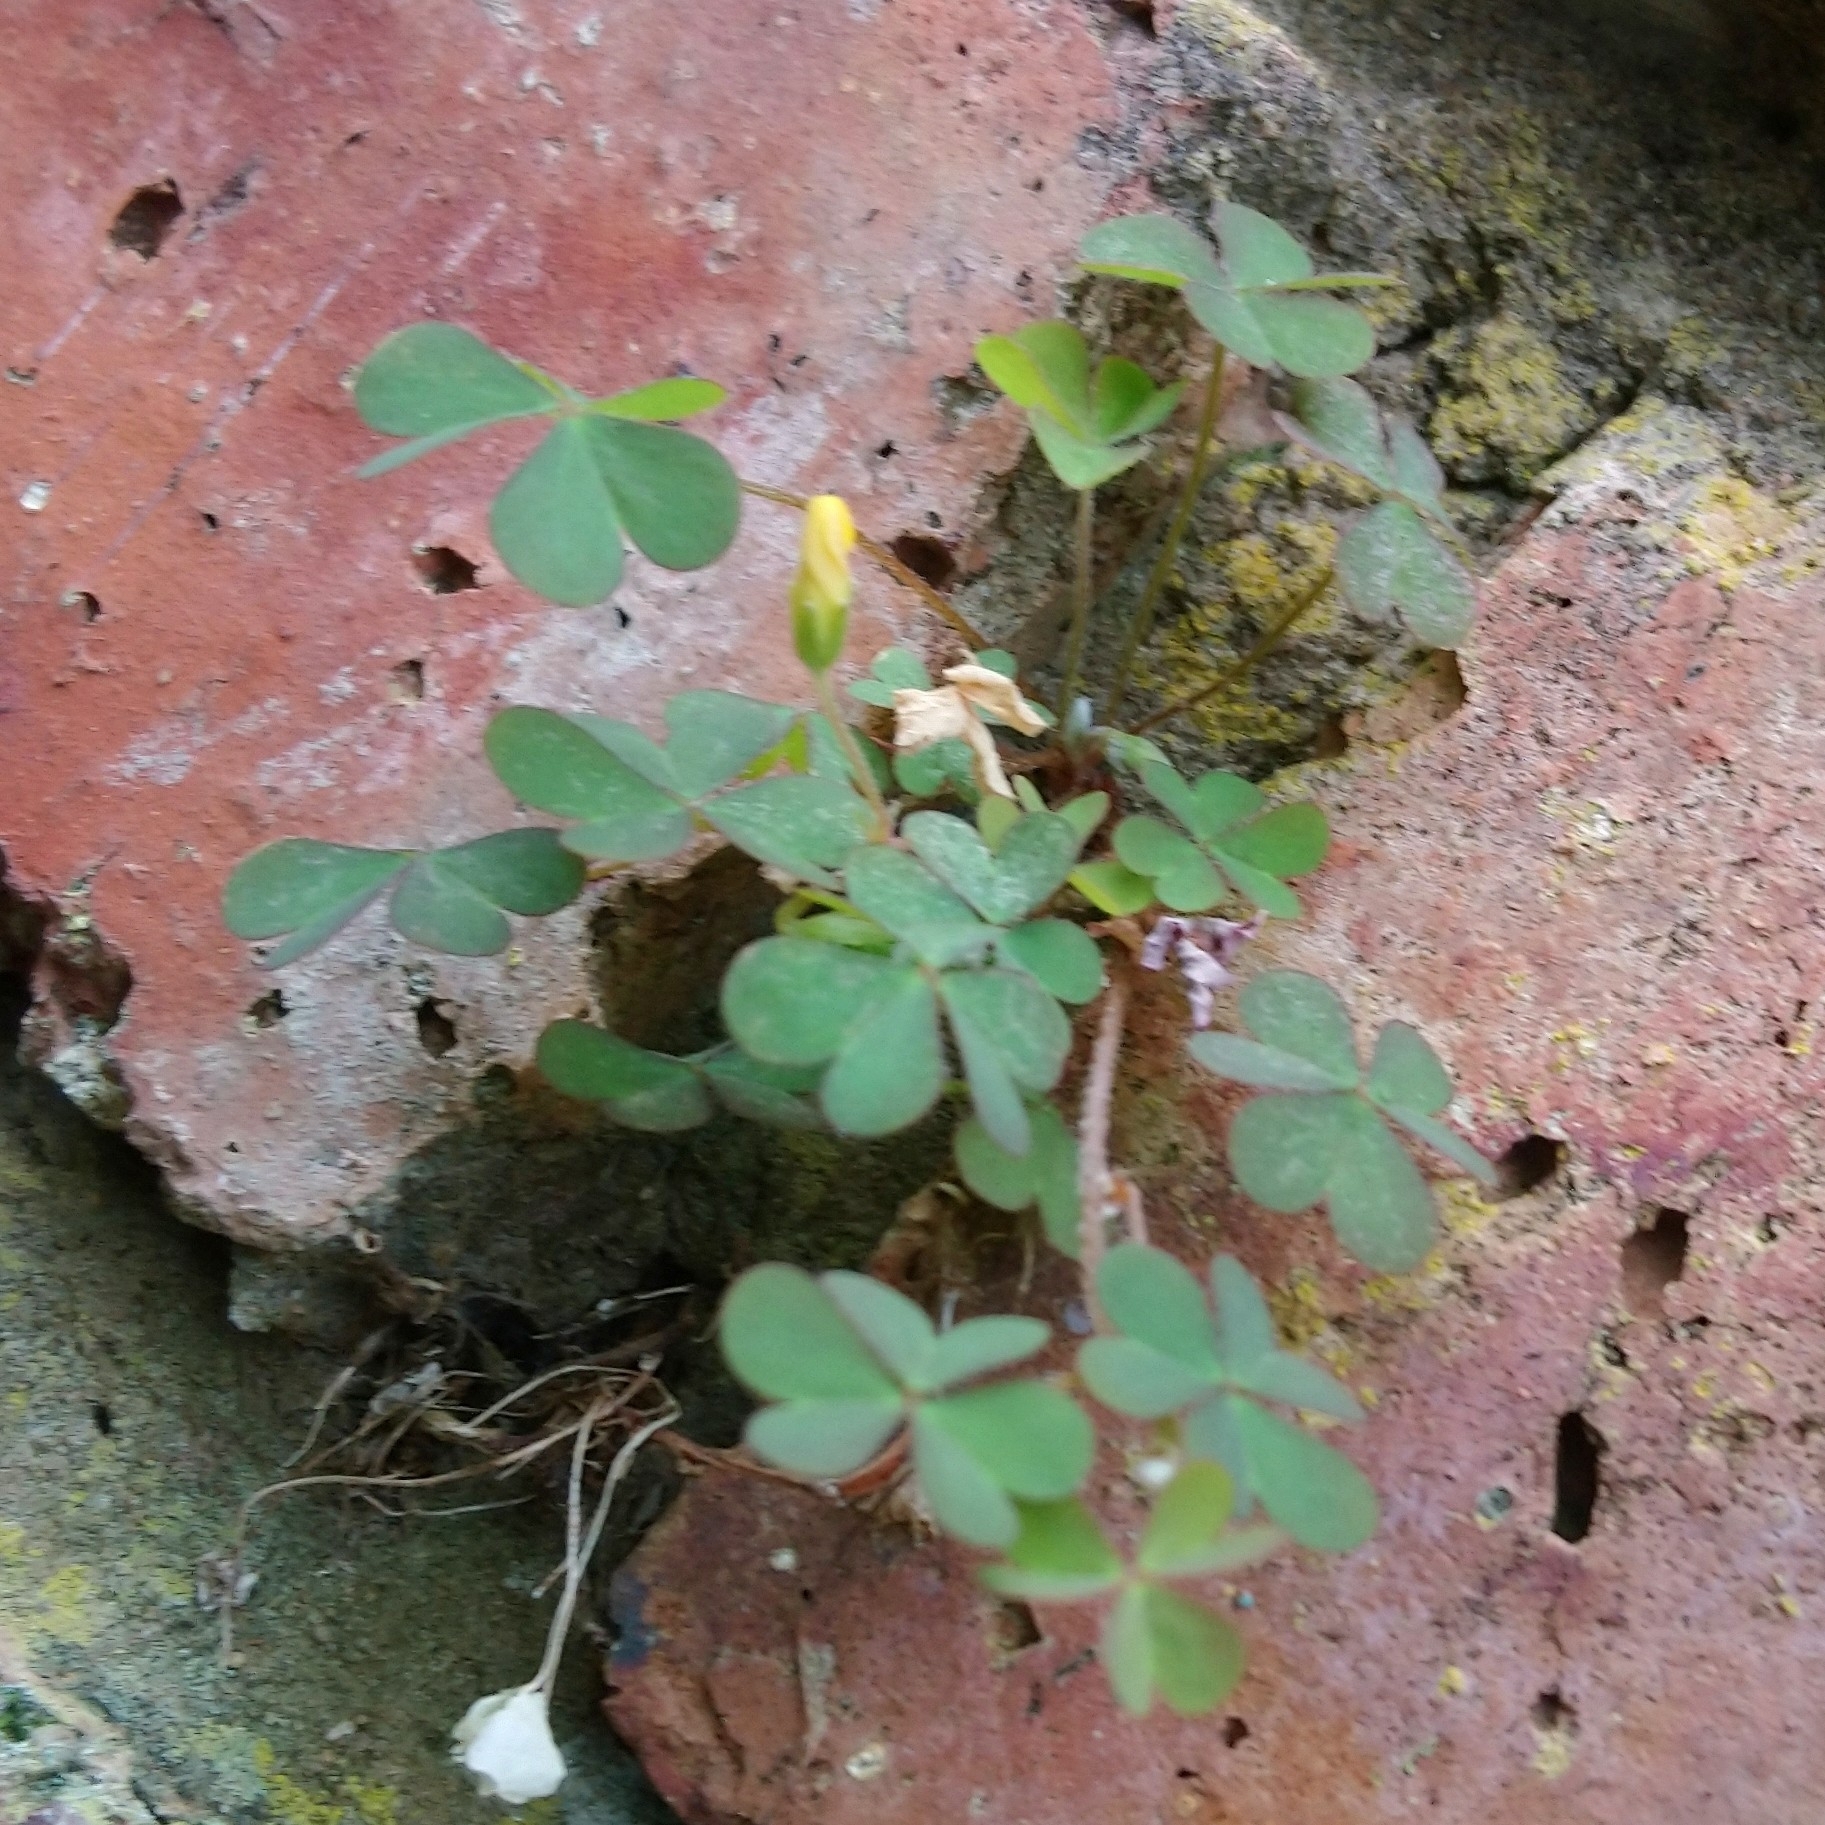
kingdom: Plantae
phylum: Tracheophyta
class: Magnoliopsida
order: Oxalidales
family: Oxalidaceae
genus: Oxalis
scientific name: Oxalis corniculata
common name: Procumbent yellow-sorrel
